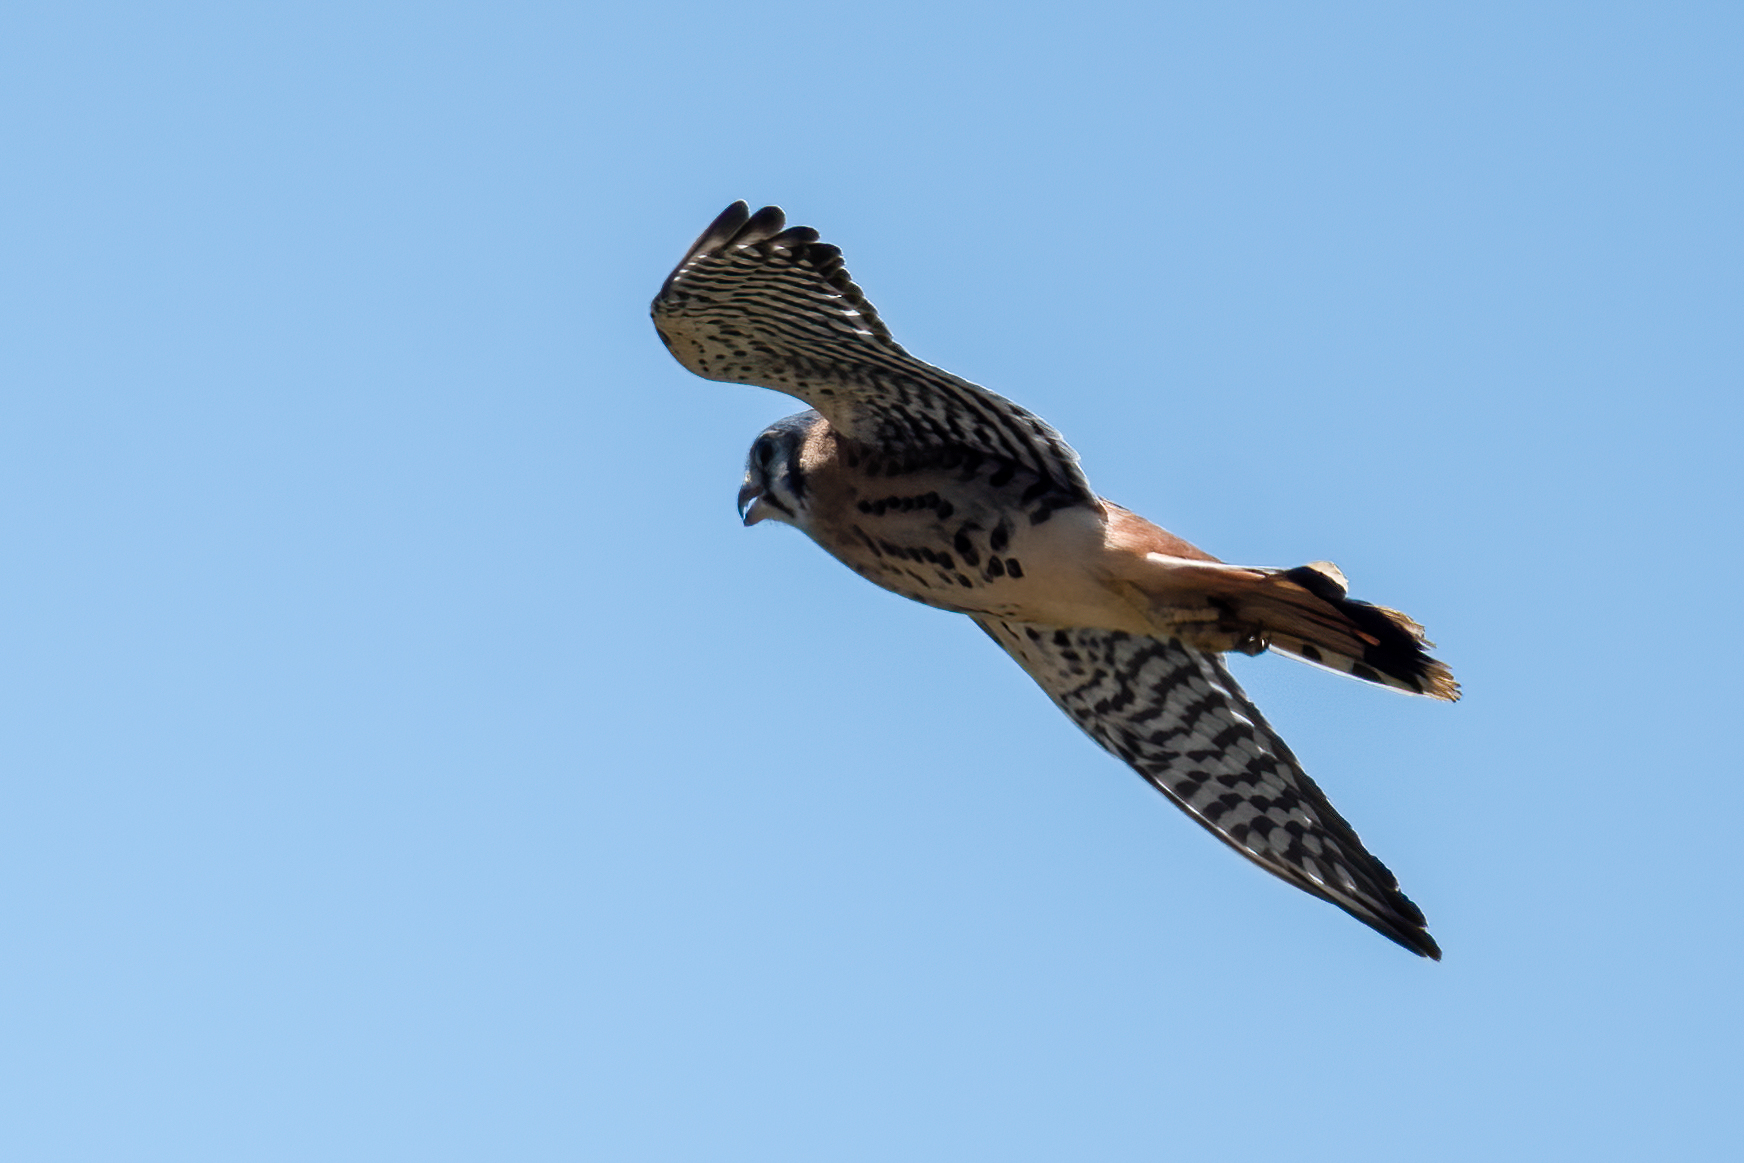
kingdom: Animalia
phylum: Chordata
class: Aves
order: Falconiformes
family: Falconidae
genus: Falco
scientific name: Falco sparverius
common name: American kestrel
